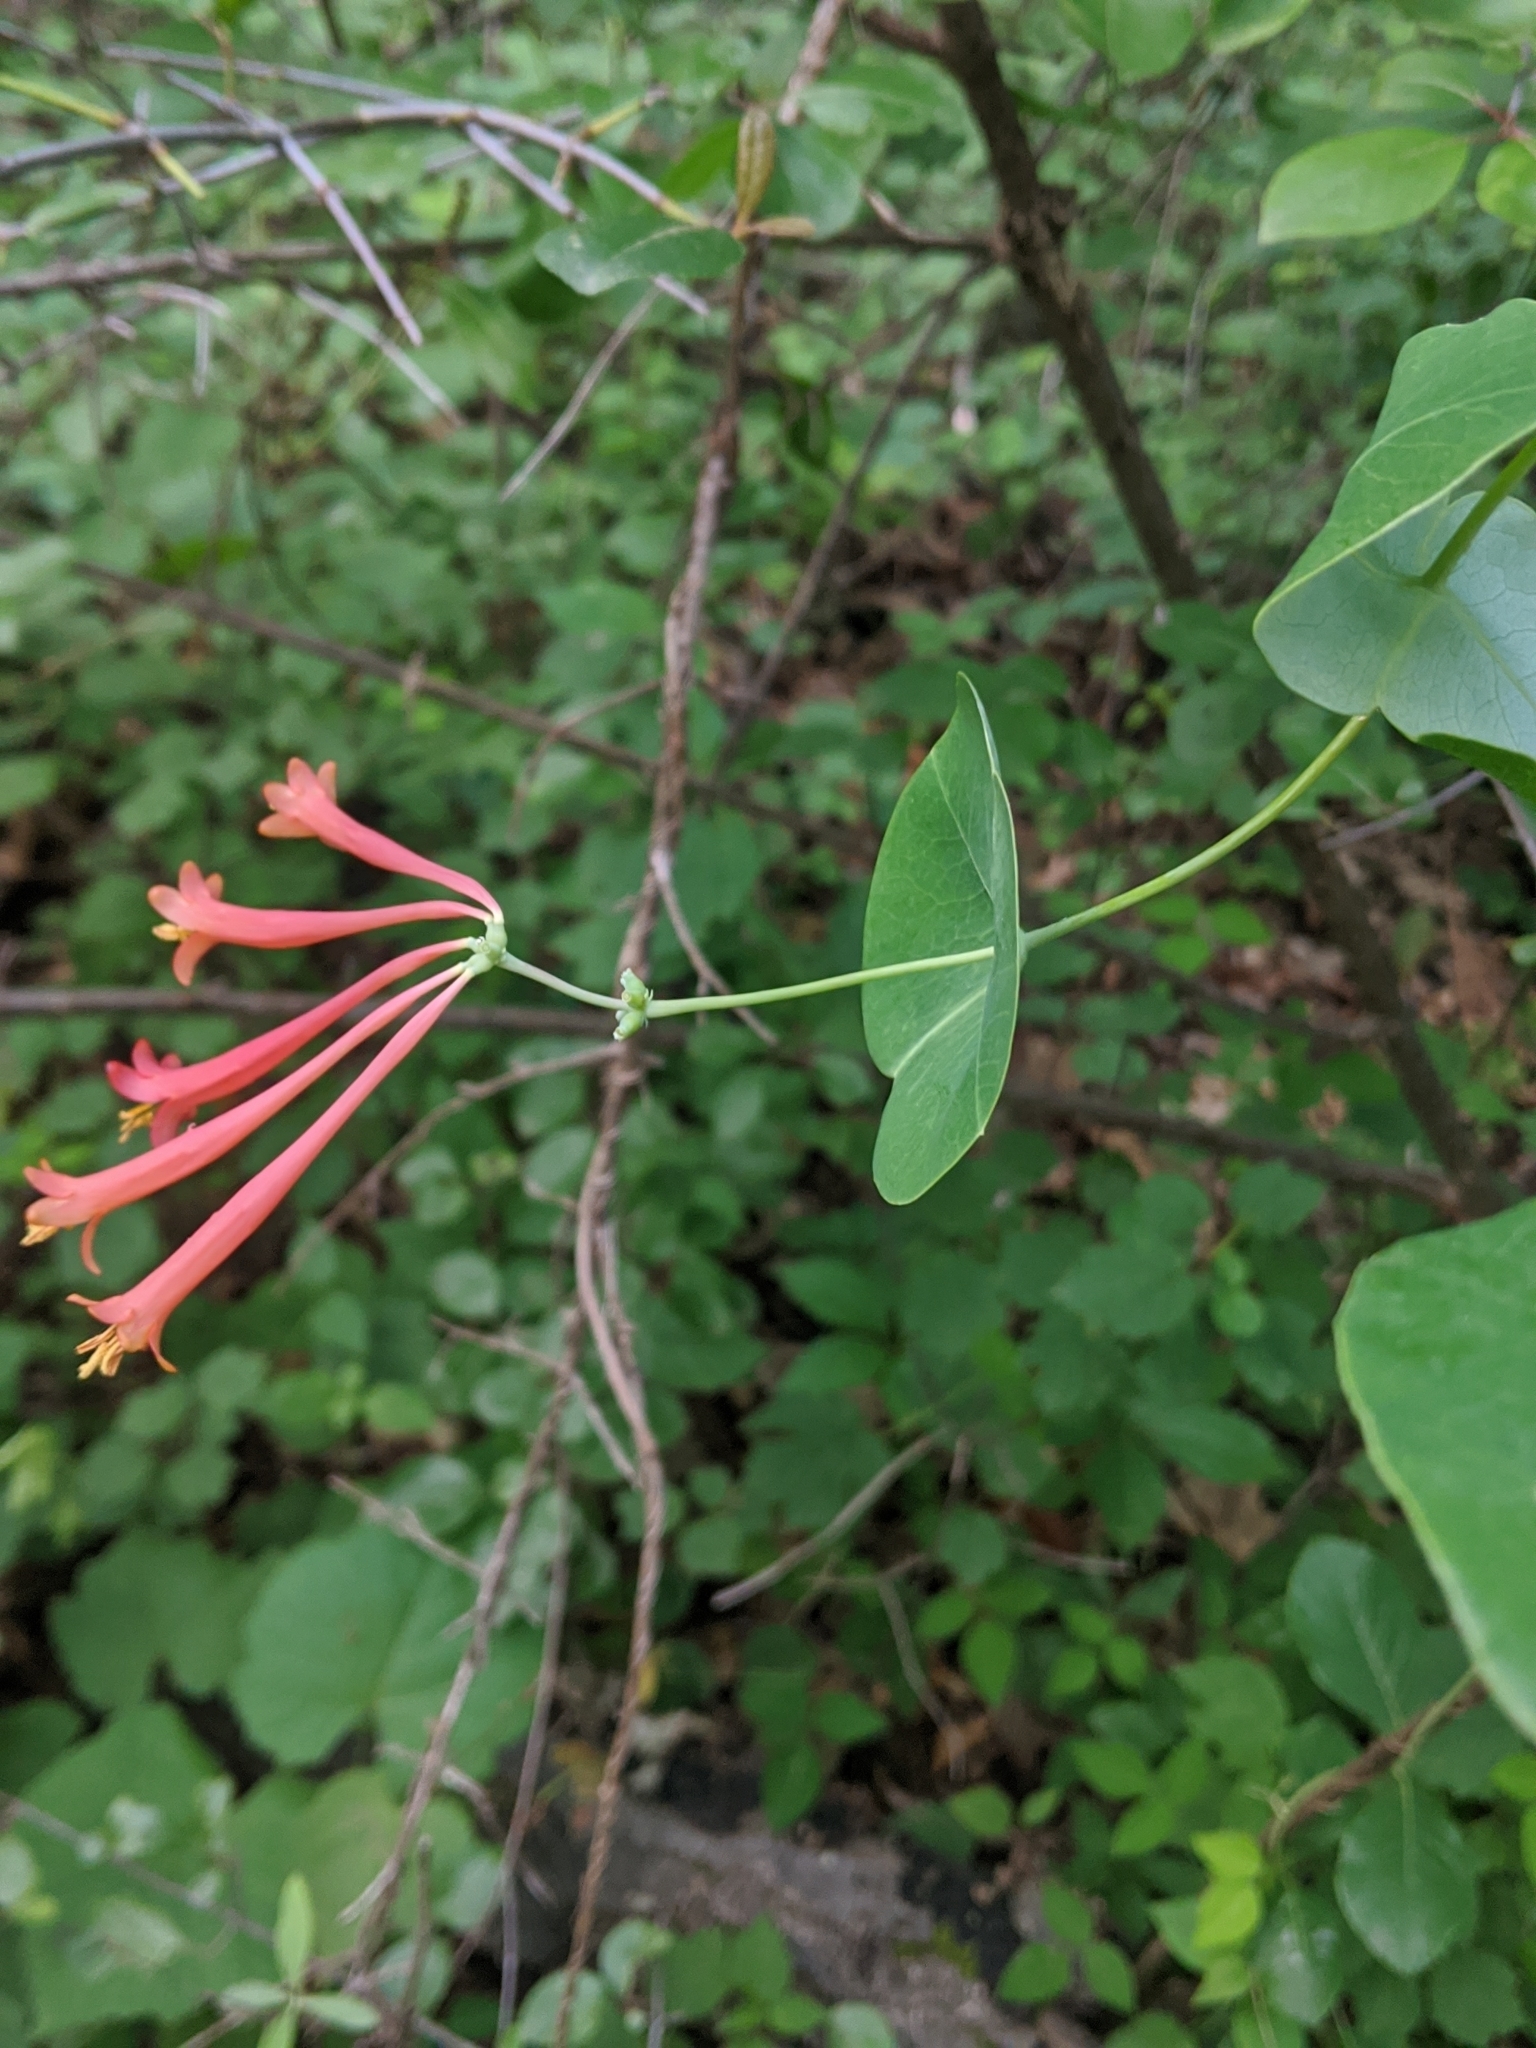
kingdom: Plantae
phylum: Tracheophyta
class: Magnoliopsida
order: Dipsacales
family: Caprifoliaceae
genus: Lonicera
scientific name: Lonicera sempervirens
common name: Coral honeysuckle
